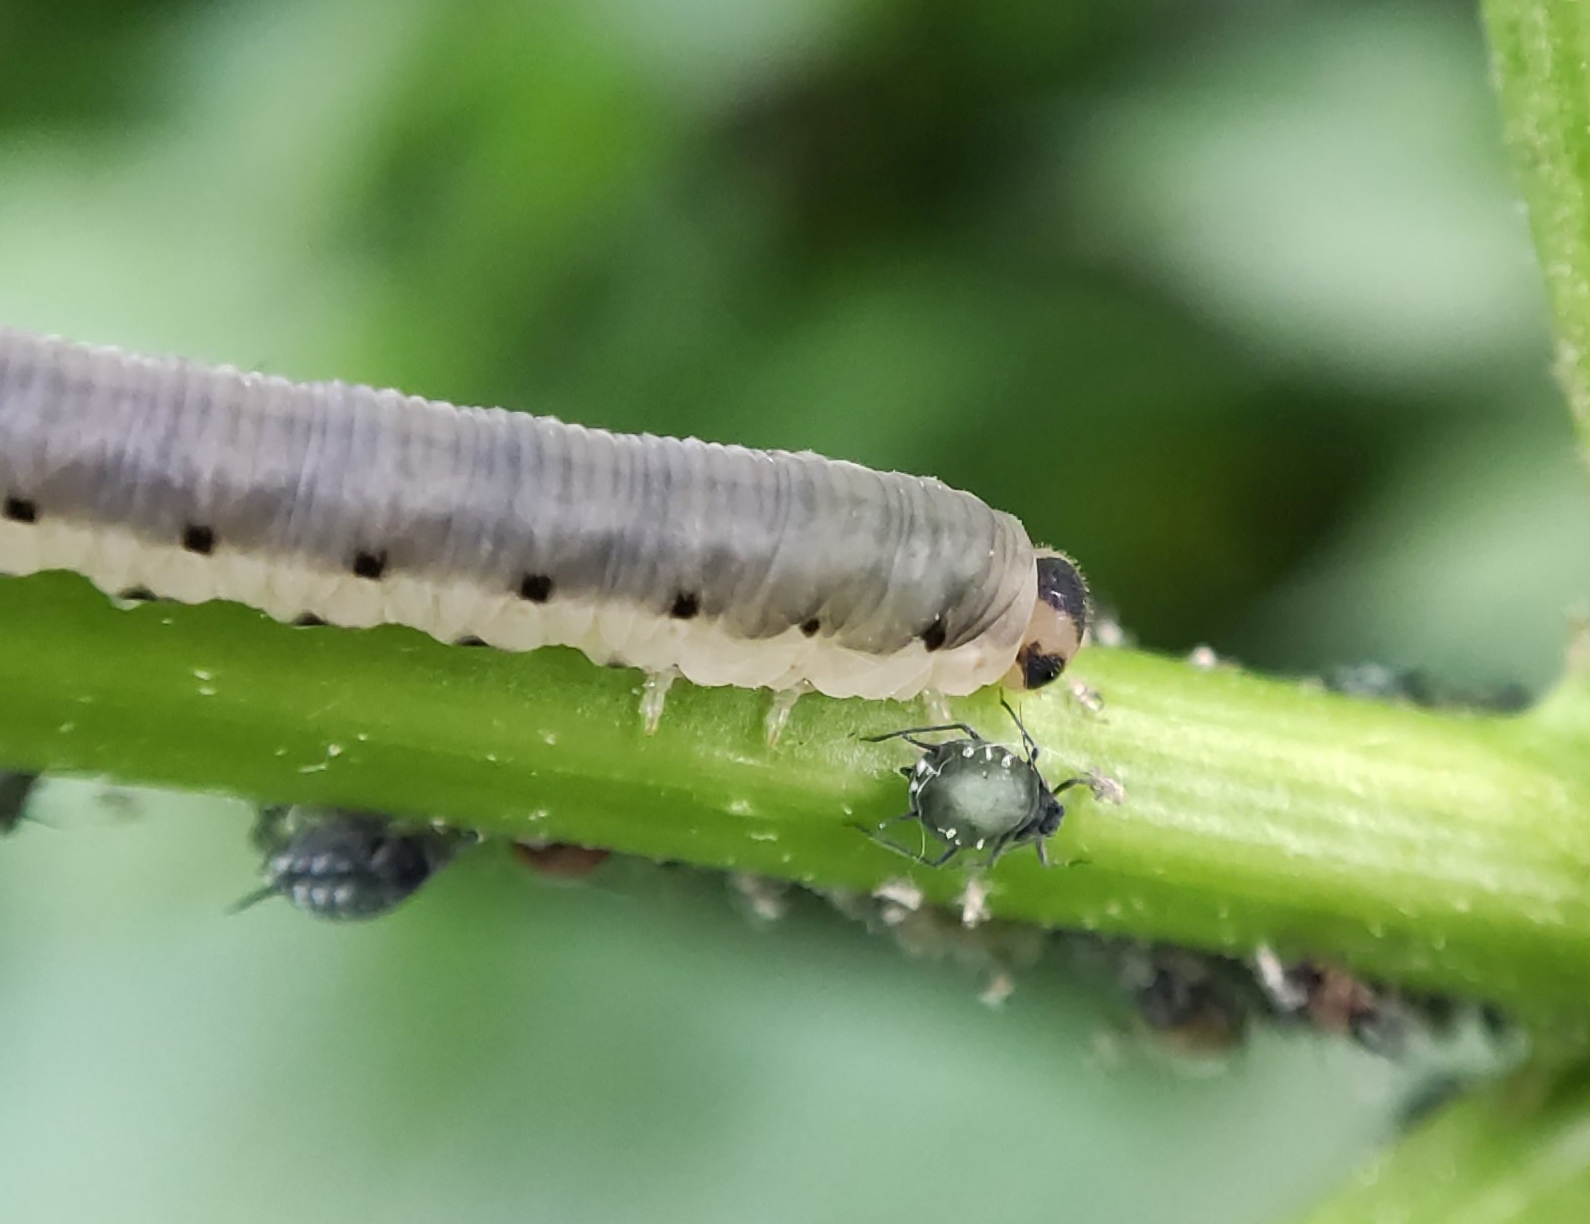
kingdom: Animalia
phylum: Arthropoda
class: Insecta
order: Hymenoptera
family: Tenthredinidae
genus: Macrophya
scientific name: Macrophya alboannulata
